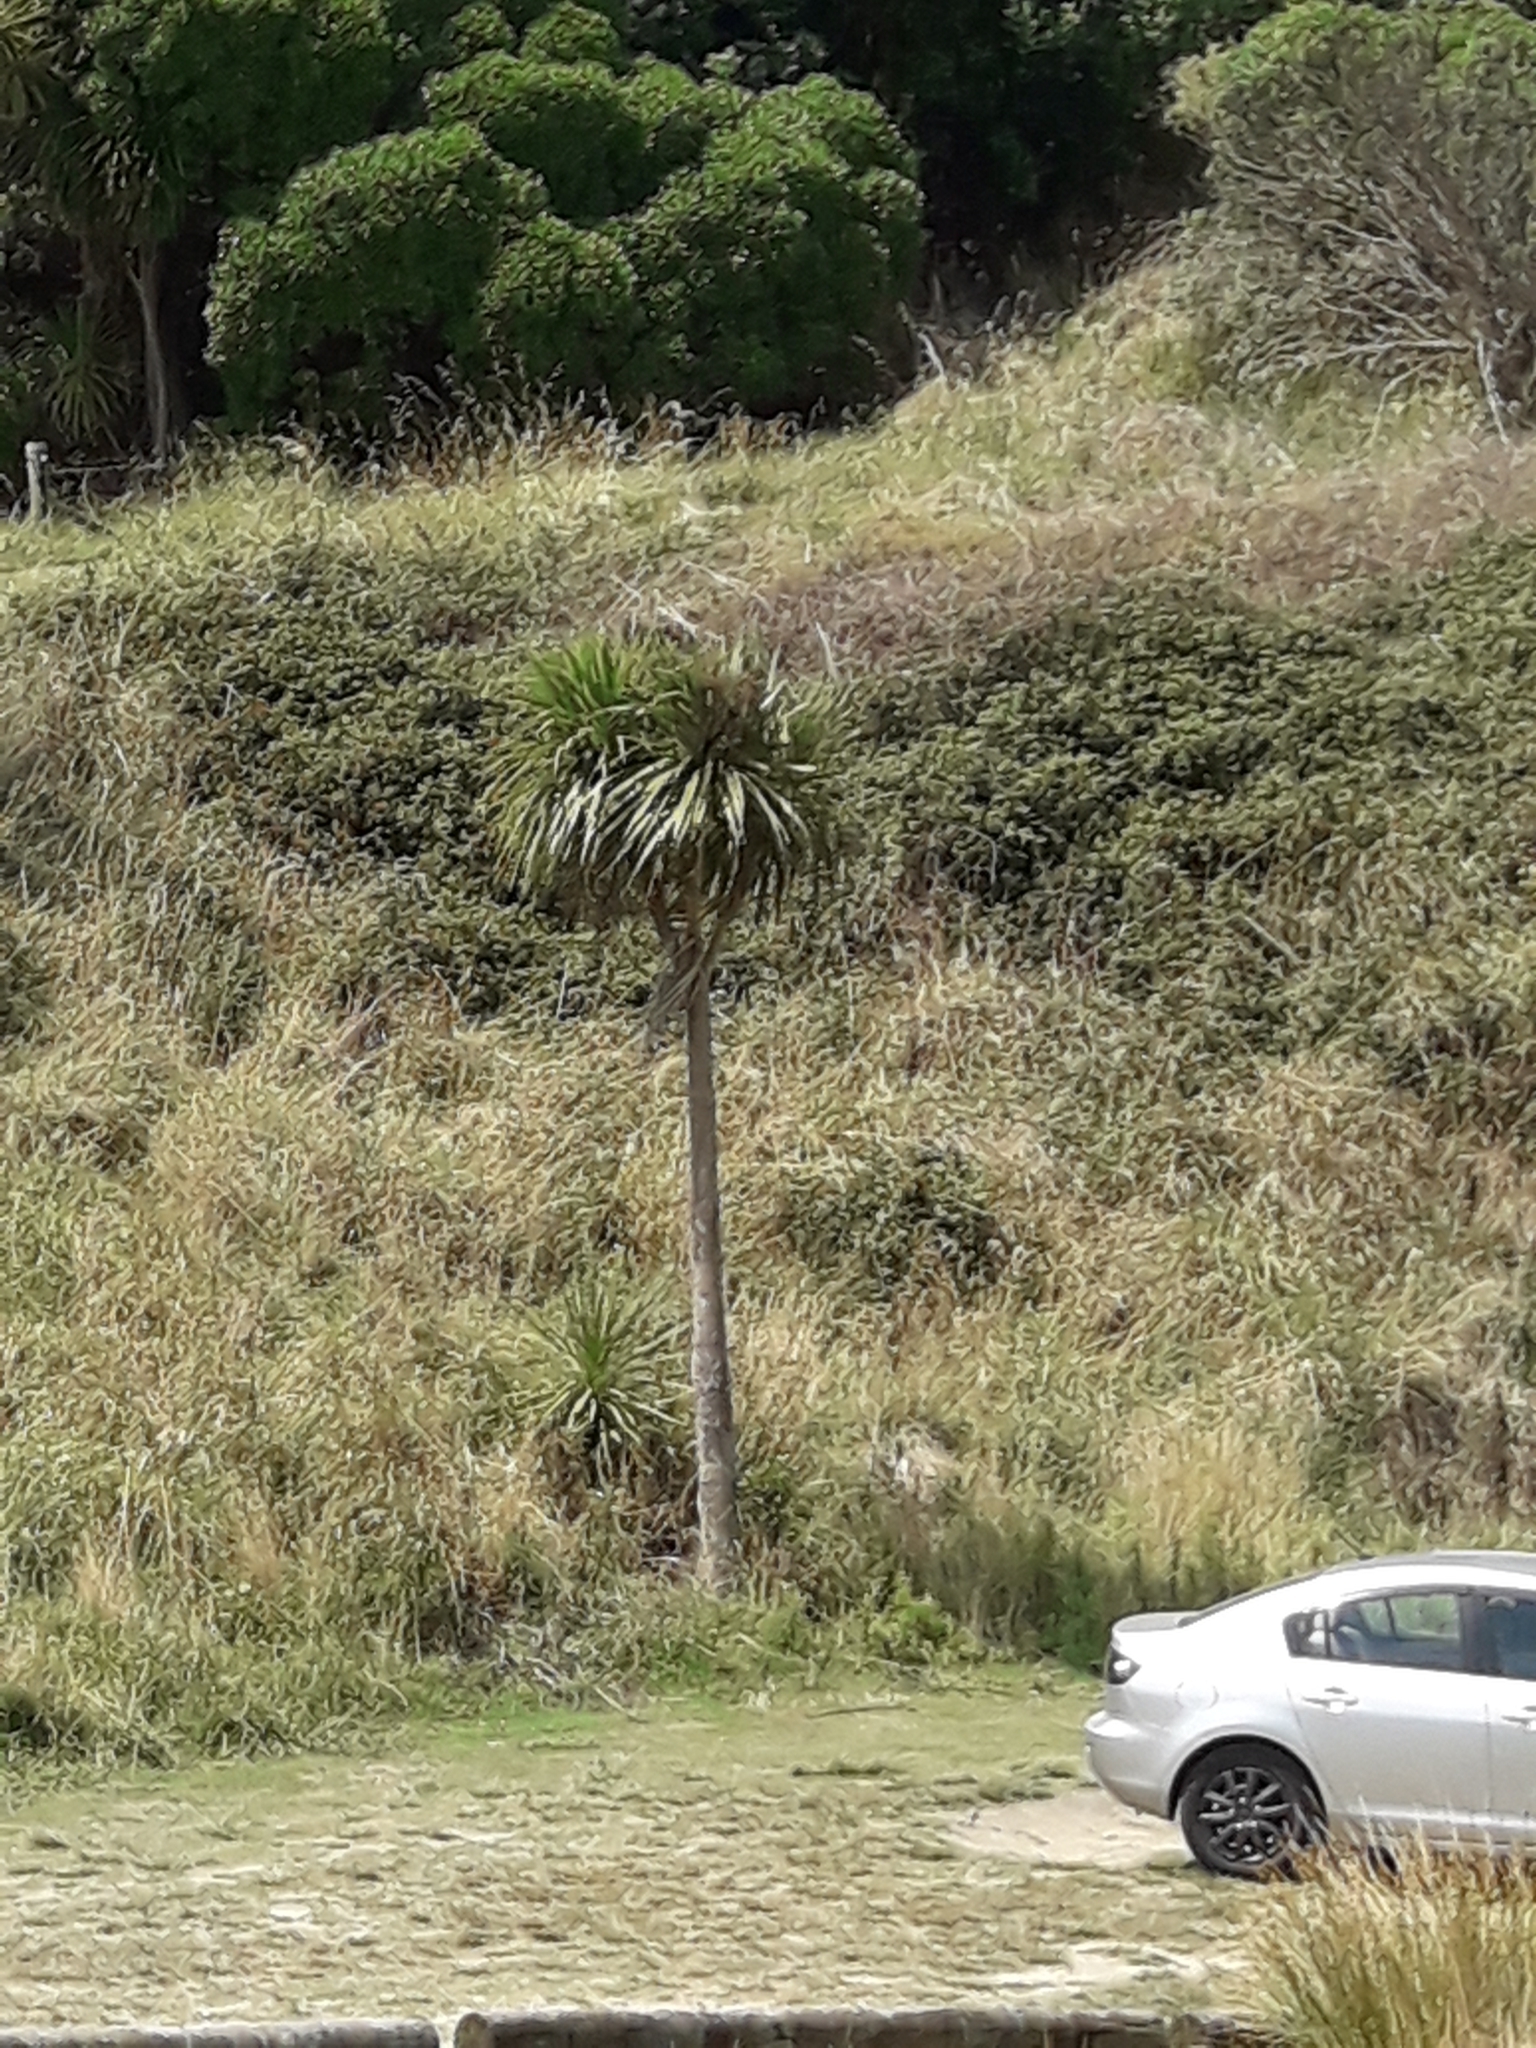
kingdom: Plantae
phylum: Tracheophyta
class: Liliopsida
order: Asparagales
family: Asparagaceae
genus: Cordyline
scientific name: Cordyline australis
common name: Cabbage-palm
